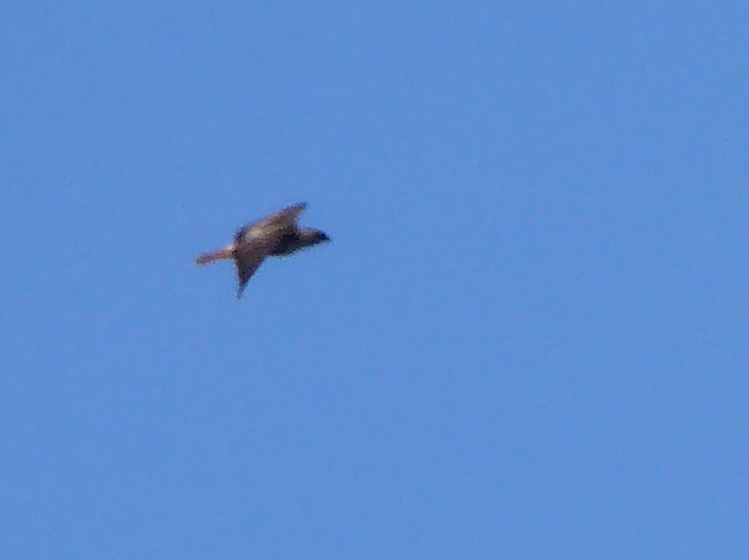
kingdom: Animalia
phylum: Chordata
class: Aves
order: Accipitriformes
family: Accipitridae
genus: Buteo
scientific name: Buteo jamaicensis
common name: Red-tailed hawk
